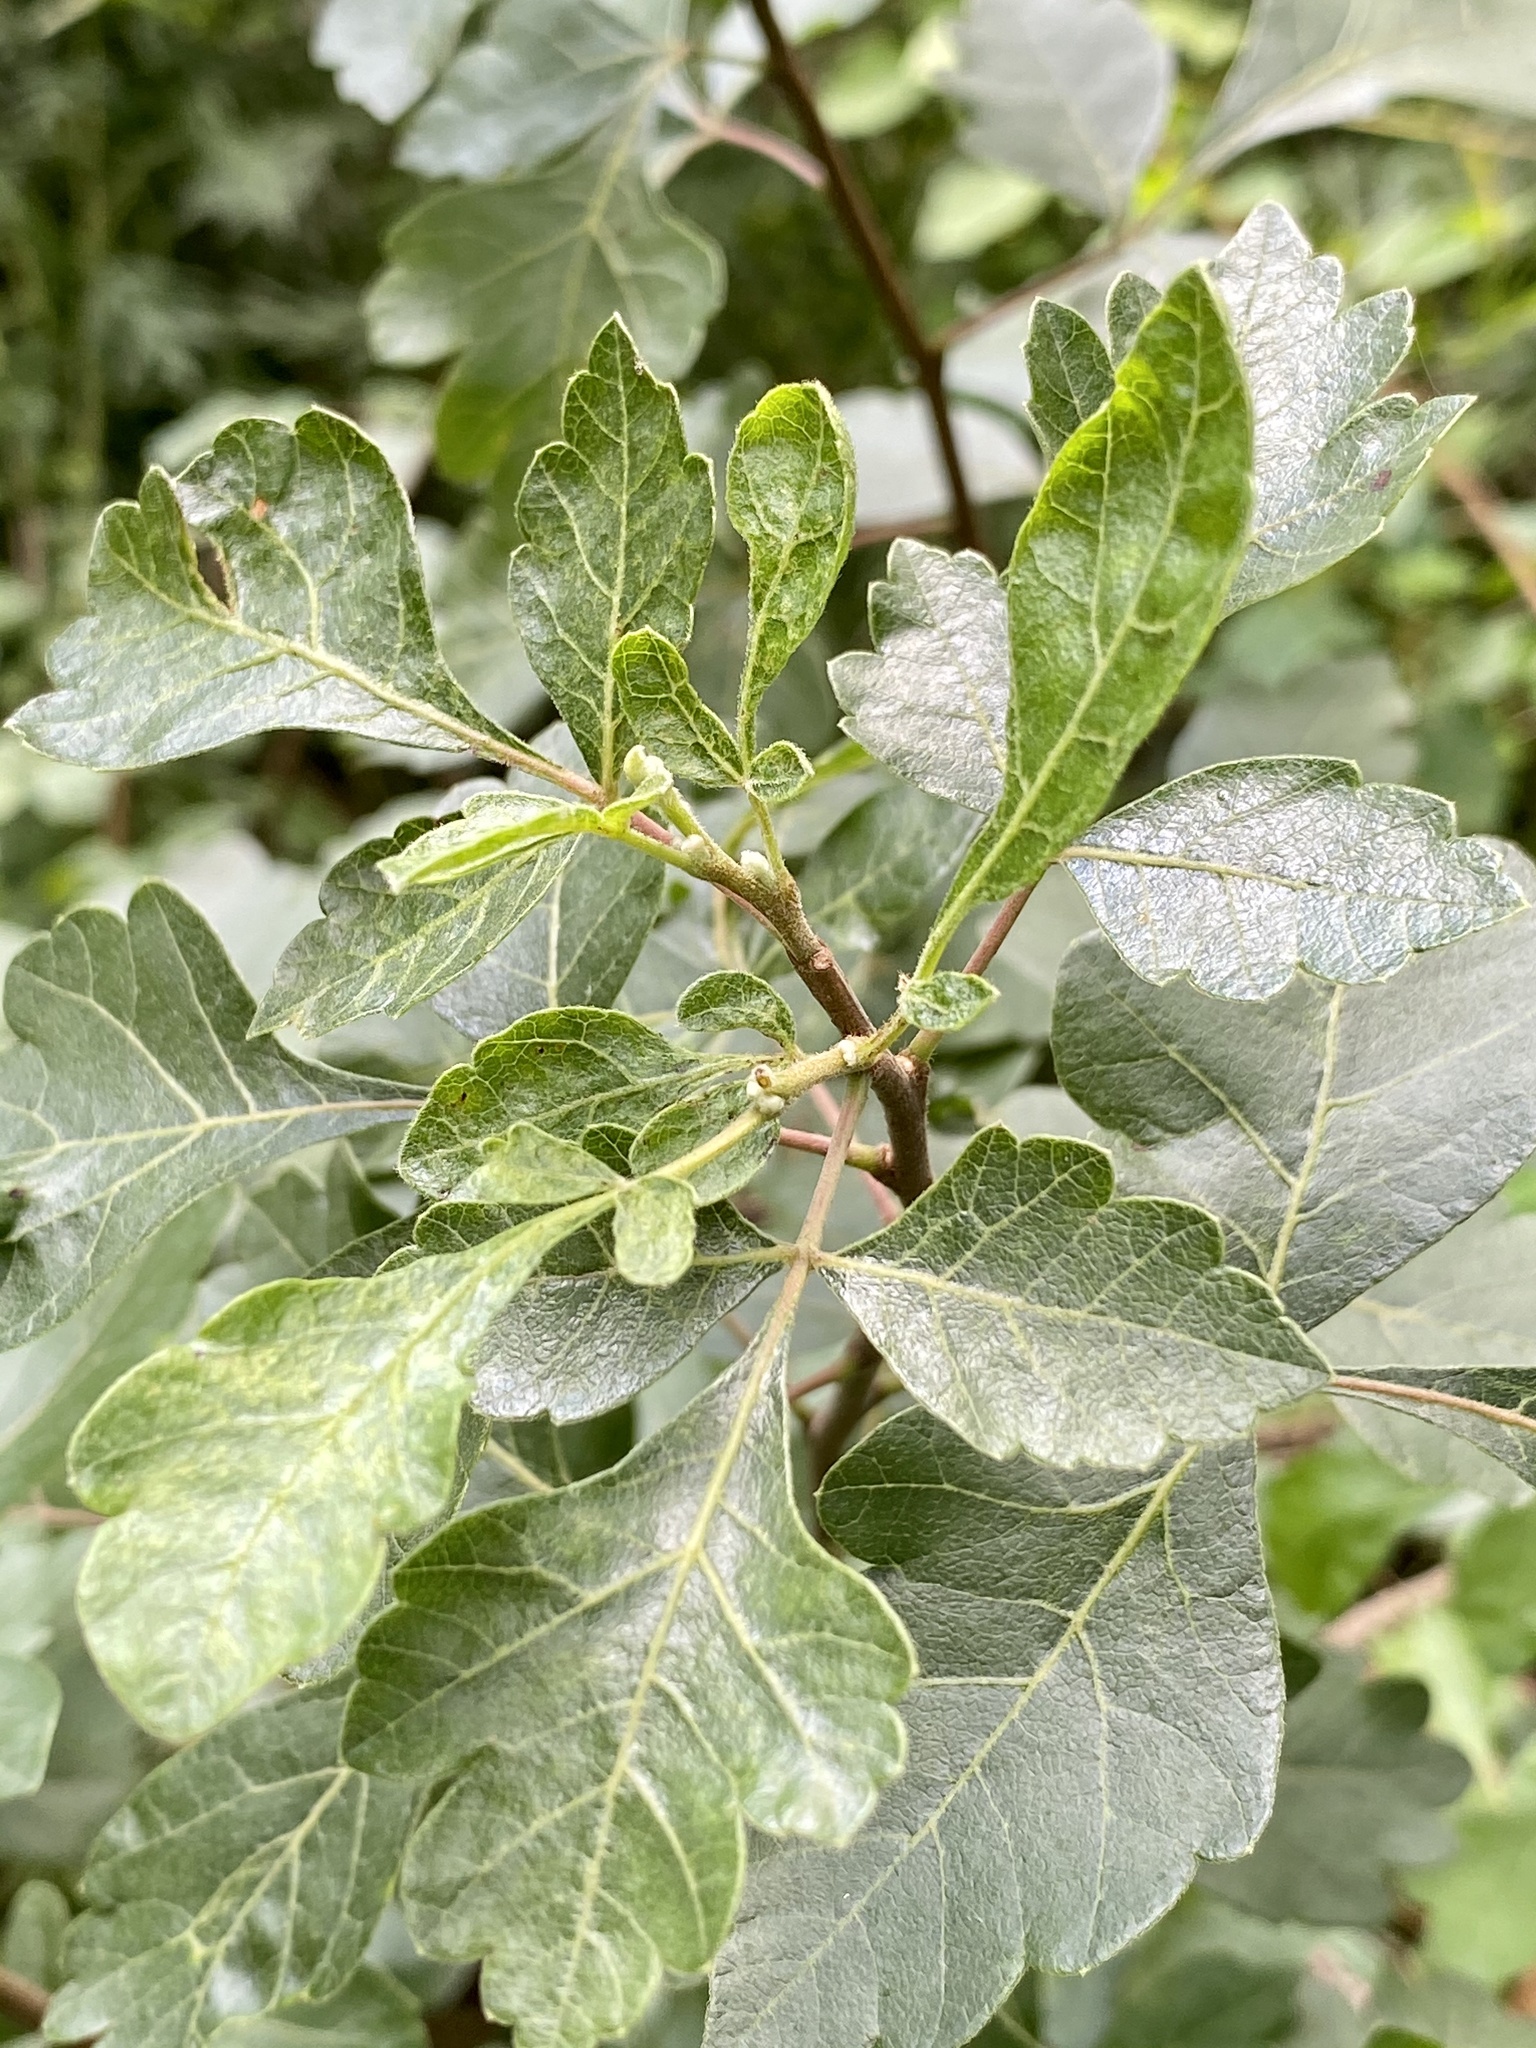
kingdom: Plantae
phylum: Tracheophyta
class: Magnoliopsida
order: Sapindales
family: Anacardiaceae
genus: Rhus
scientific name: Rhus aromatica
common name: Aromatic sumac
